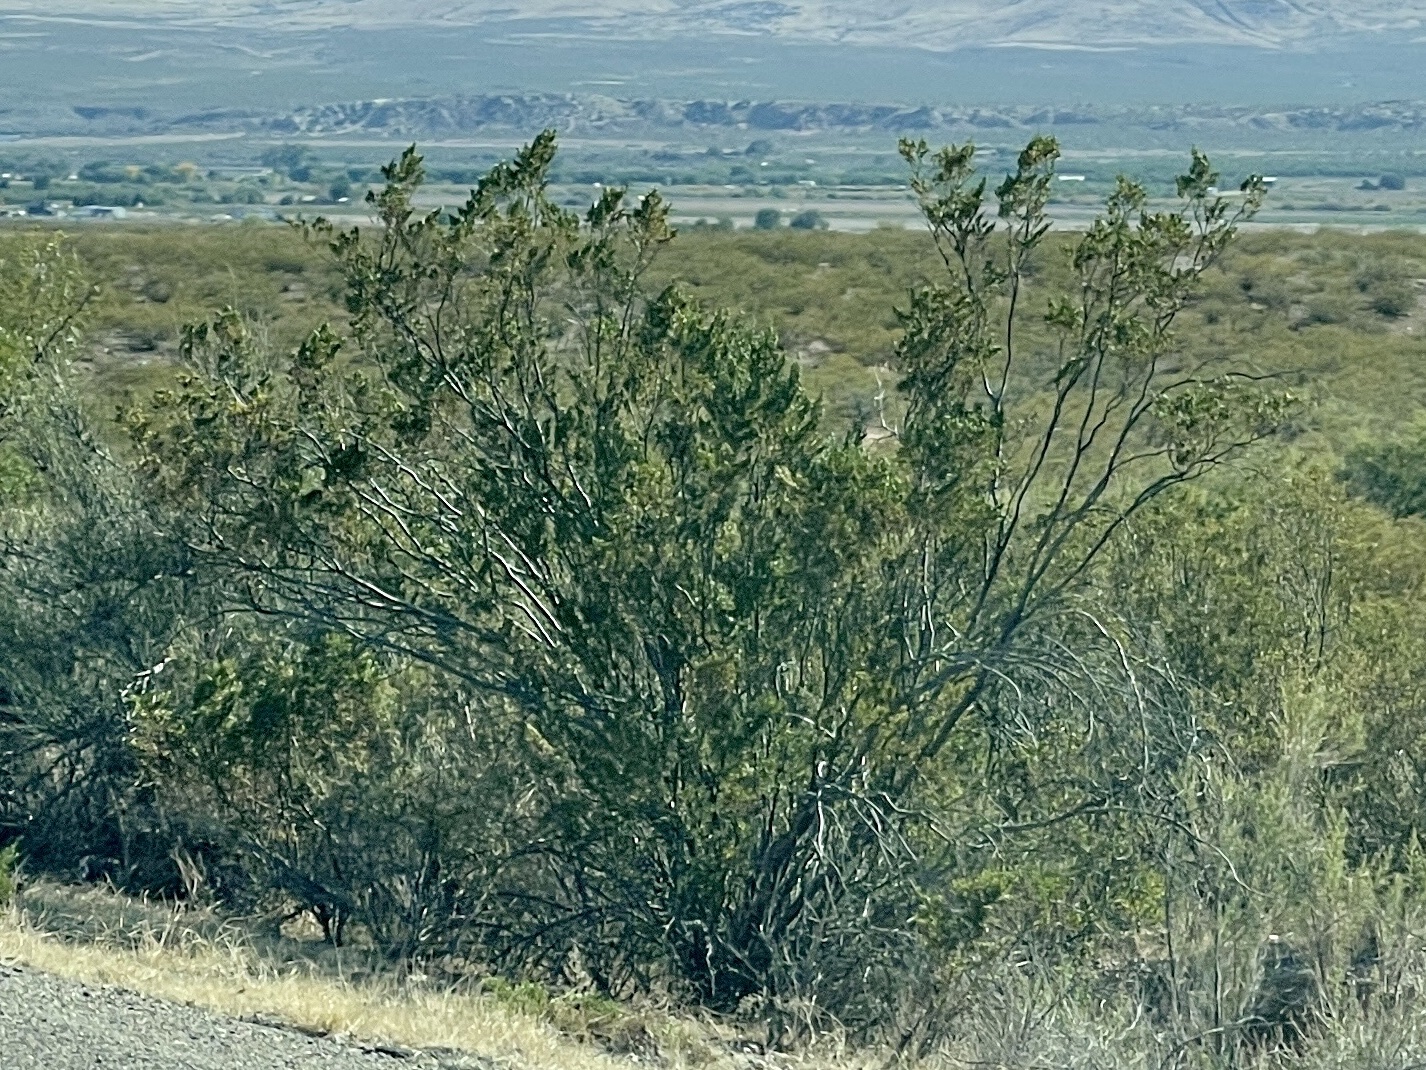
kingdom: Plantae
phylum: Tracheophyta
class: Magnoliopsida
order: Zygophyllales
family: Zygophyllaceae
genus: Larrea
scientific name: Larrea tridentata
